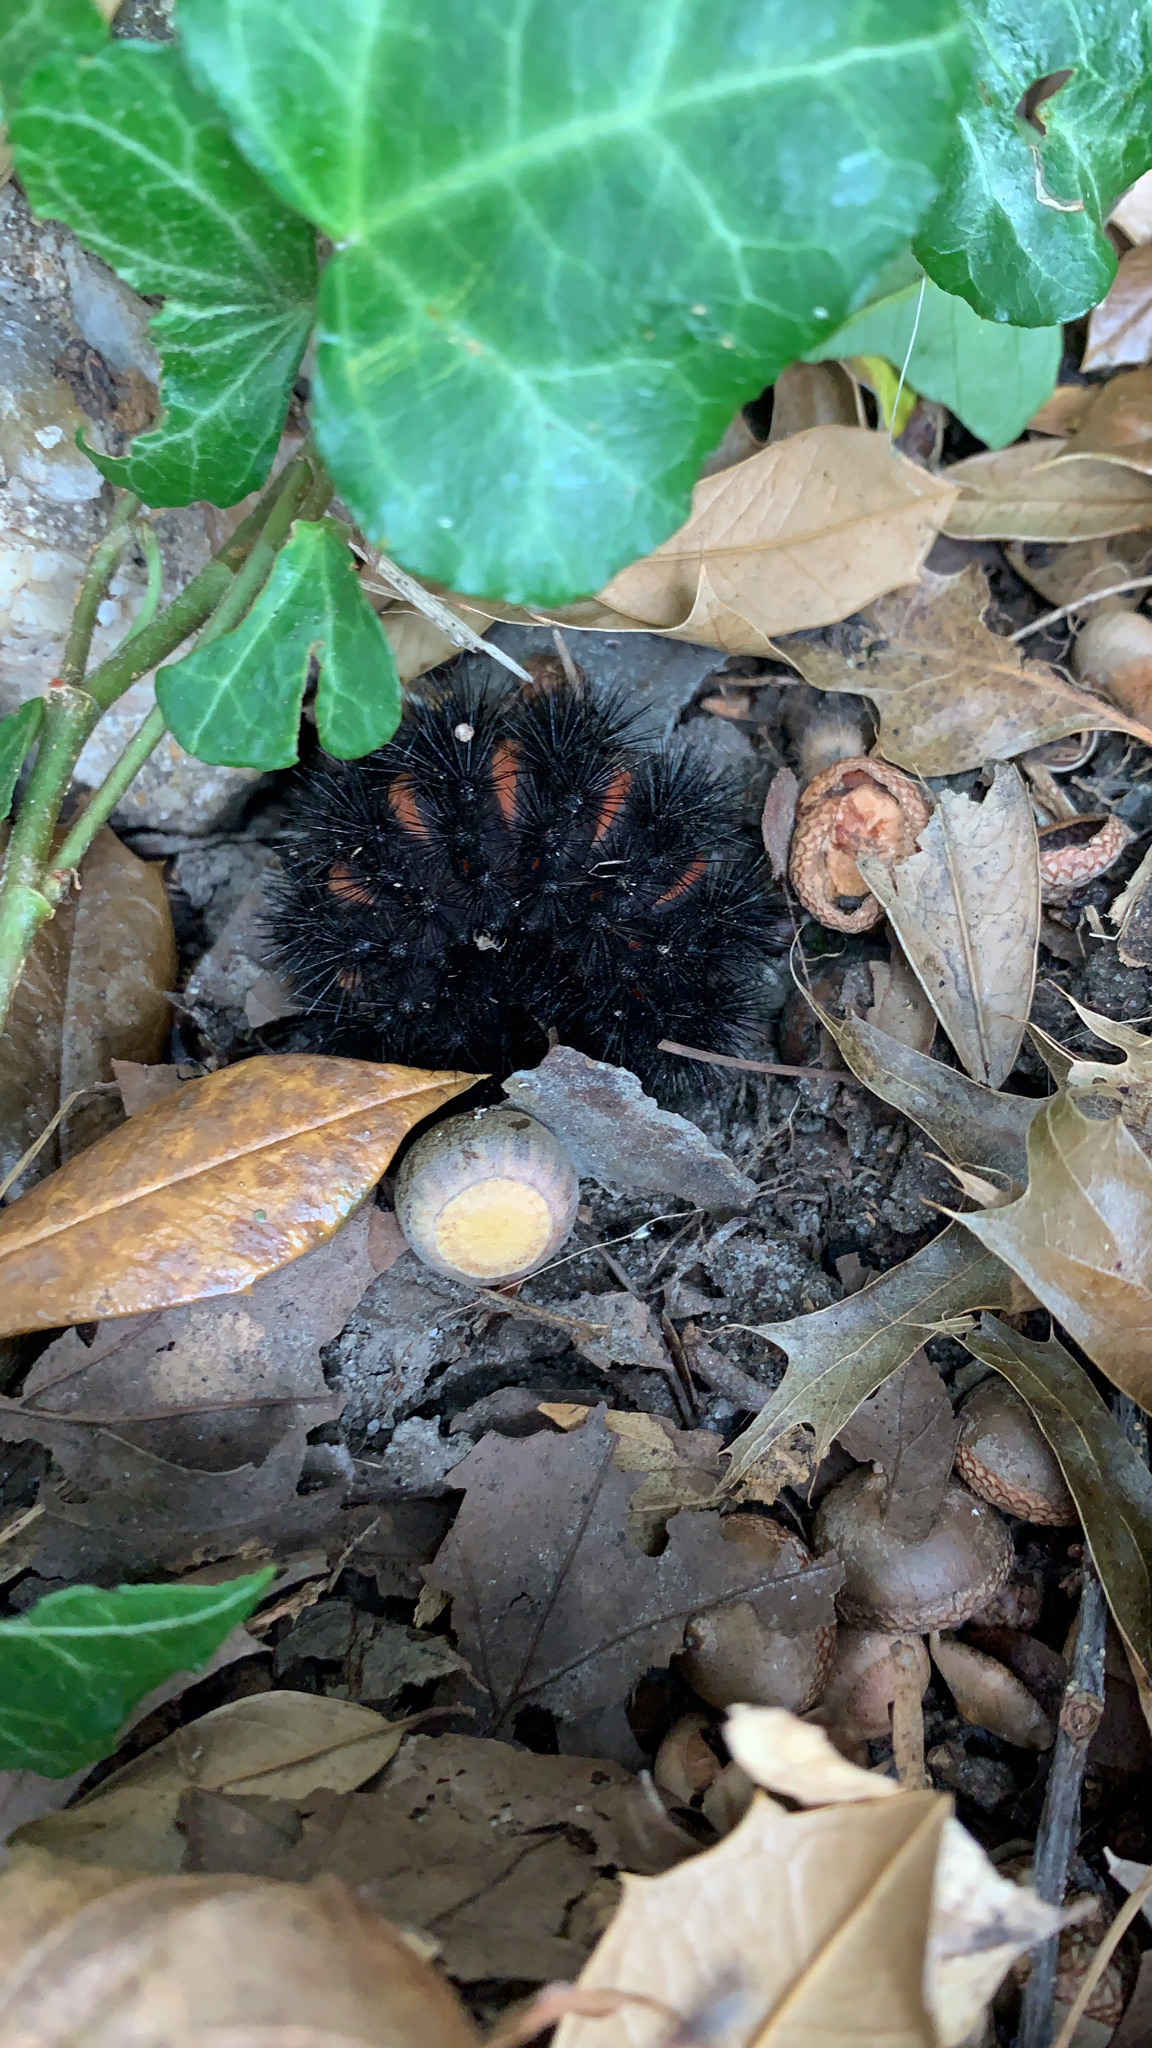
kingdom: Animalia
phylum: Arthropoda
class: Insecta
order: Lepidoptera
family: Erebidae
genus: Hypercompe
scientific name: Hypercompe scribonia
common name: Giant leopard moth
